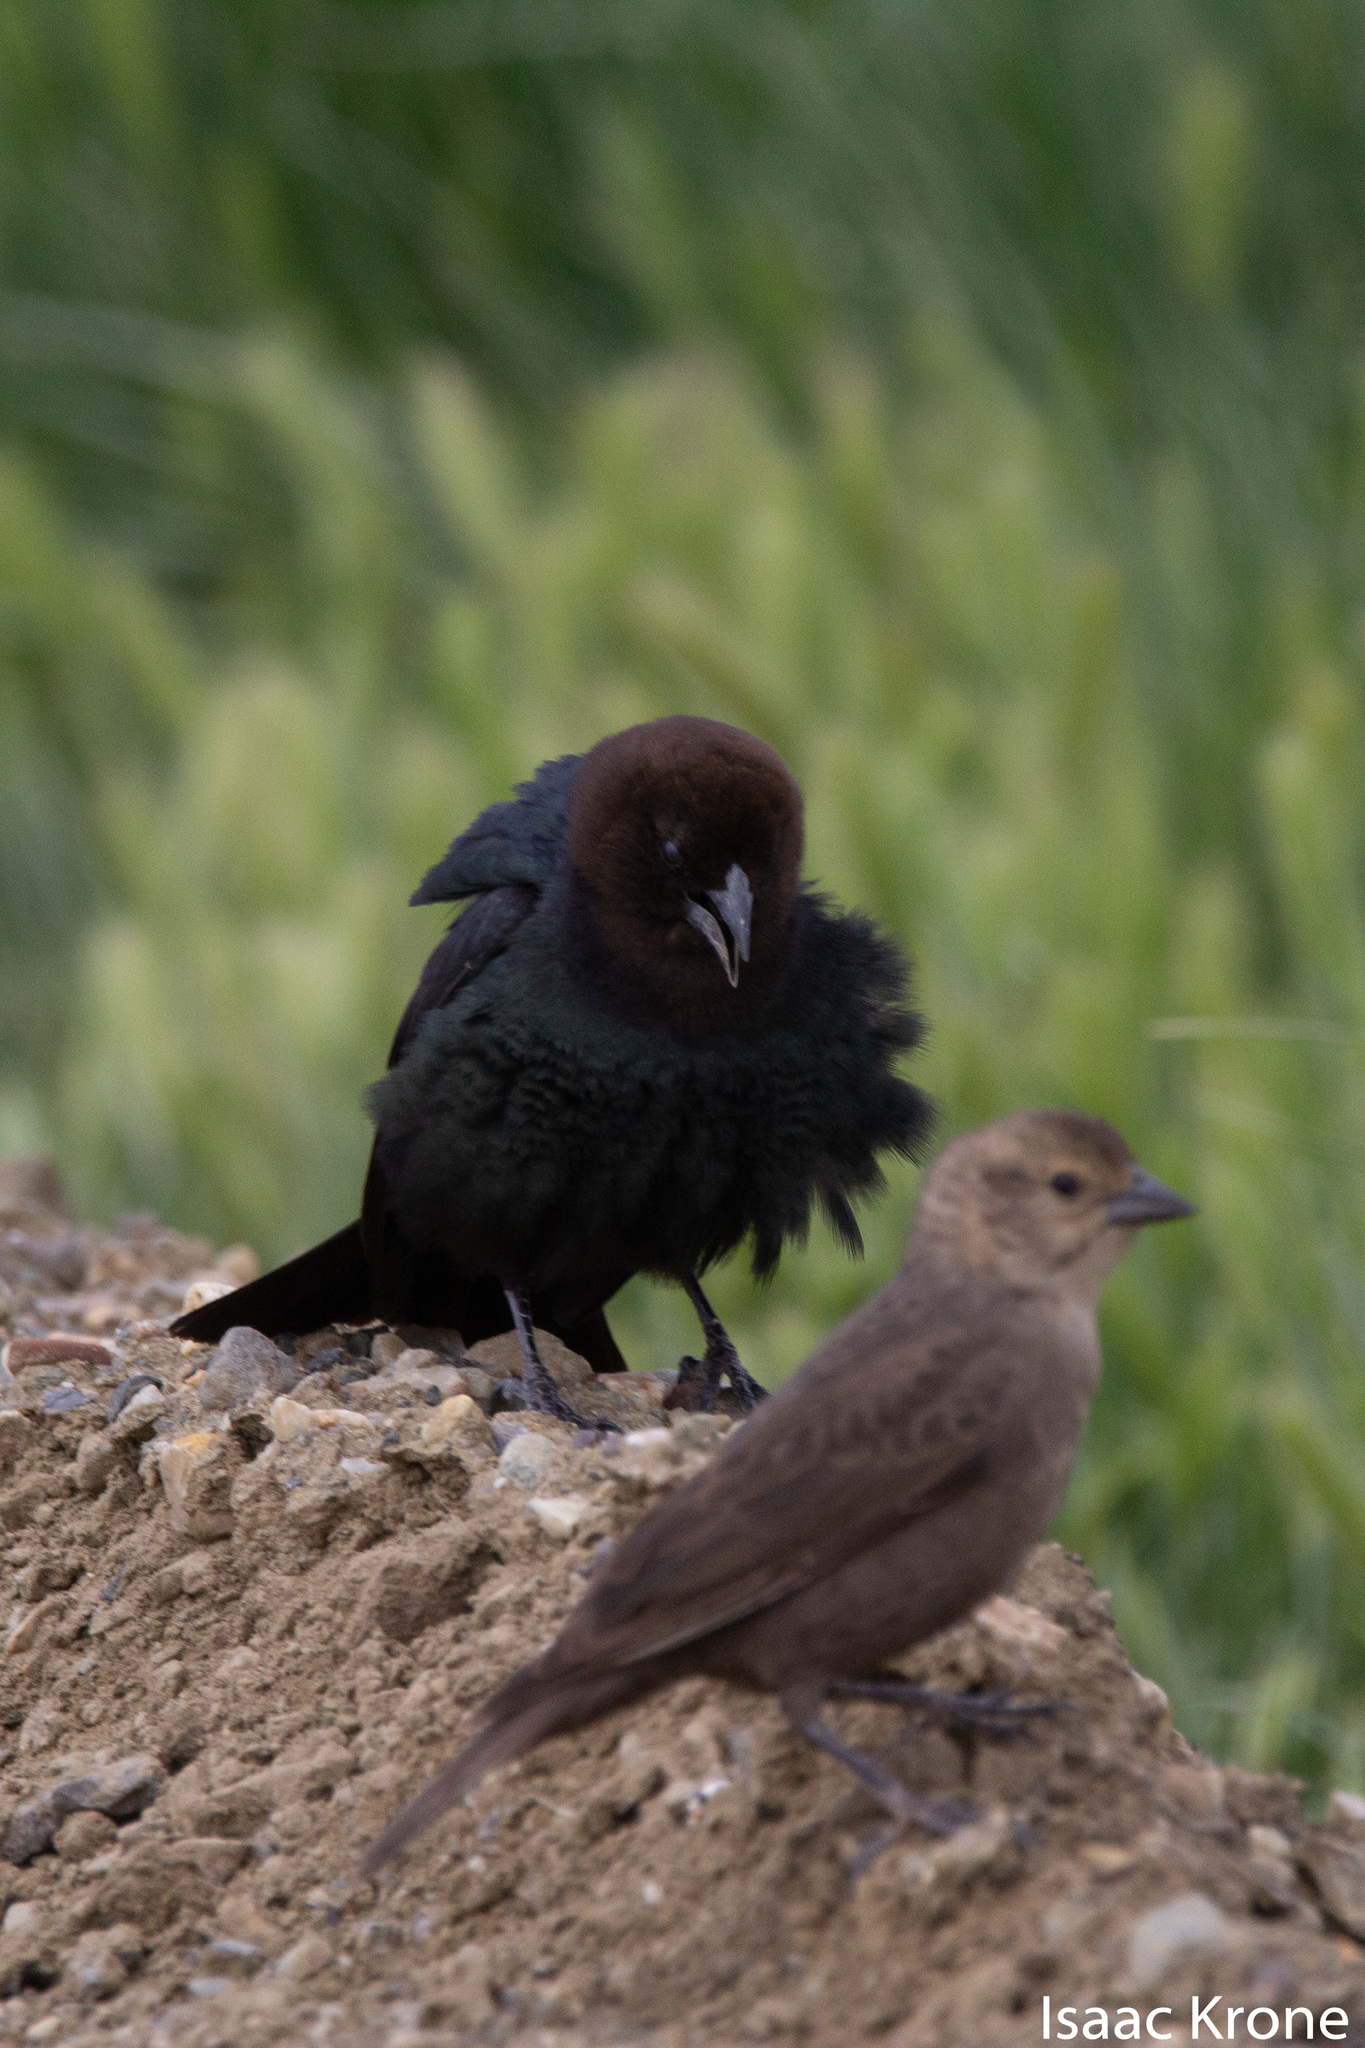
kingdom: Animalia
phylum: Chordata
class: Aves
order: Passeriformes
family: Icteridae
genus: Molothrus
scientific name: Molothrus ater
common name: Brown-headed cowbird
